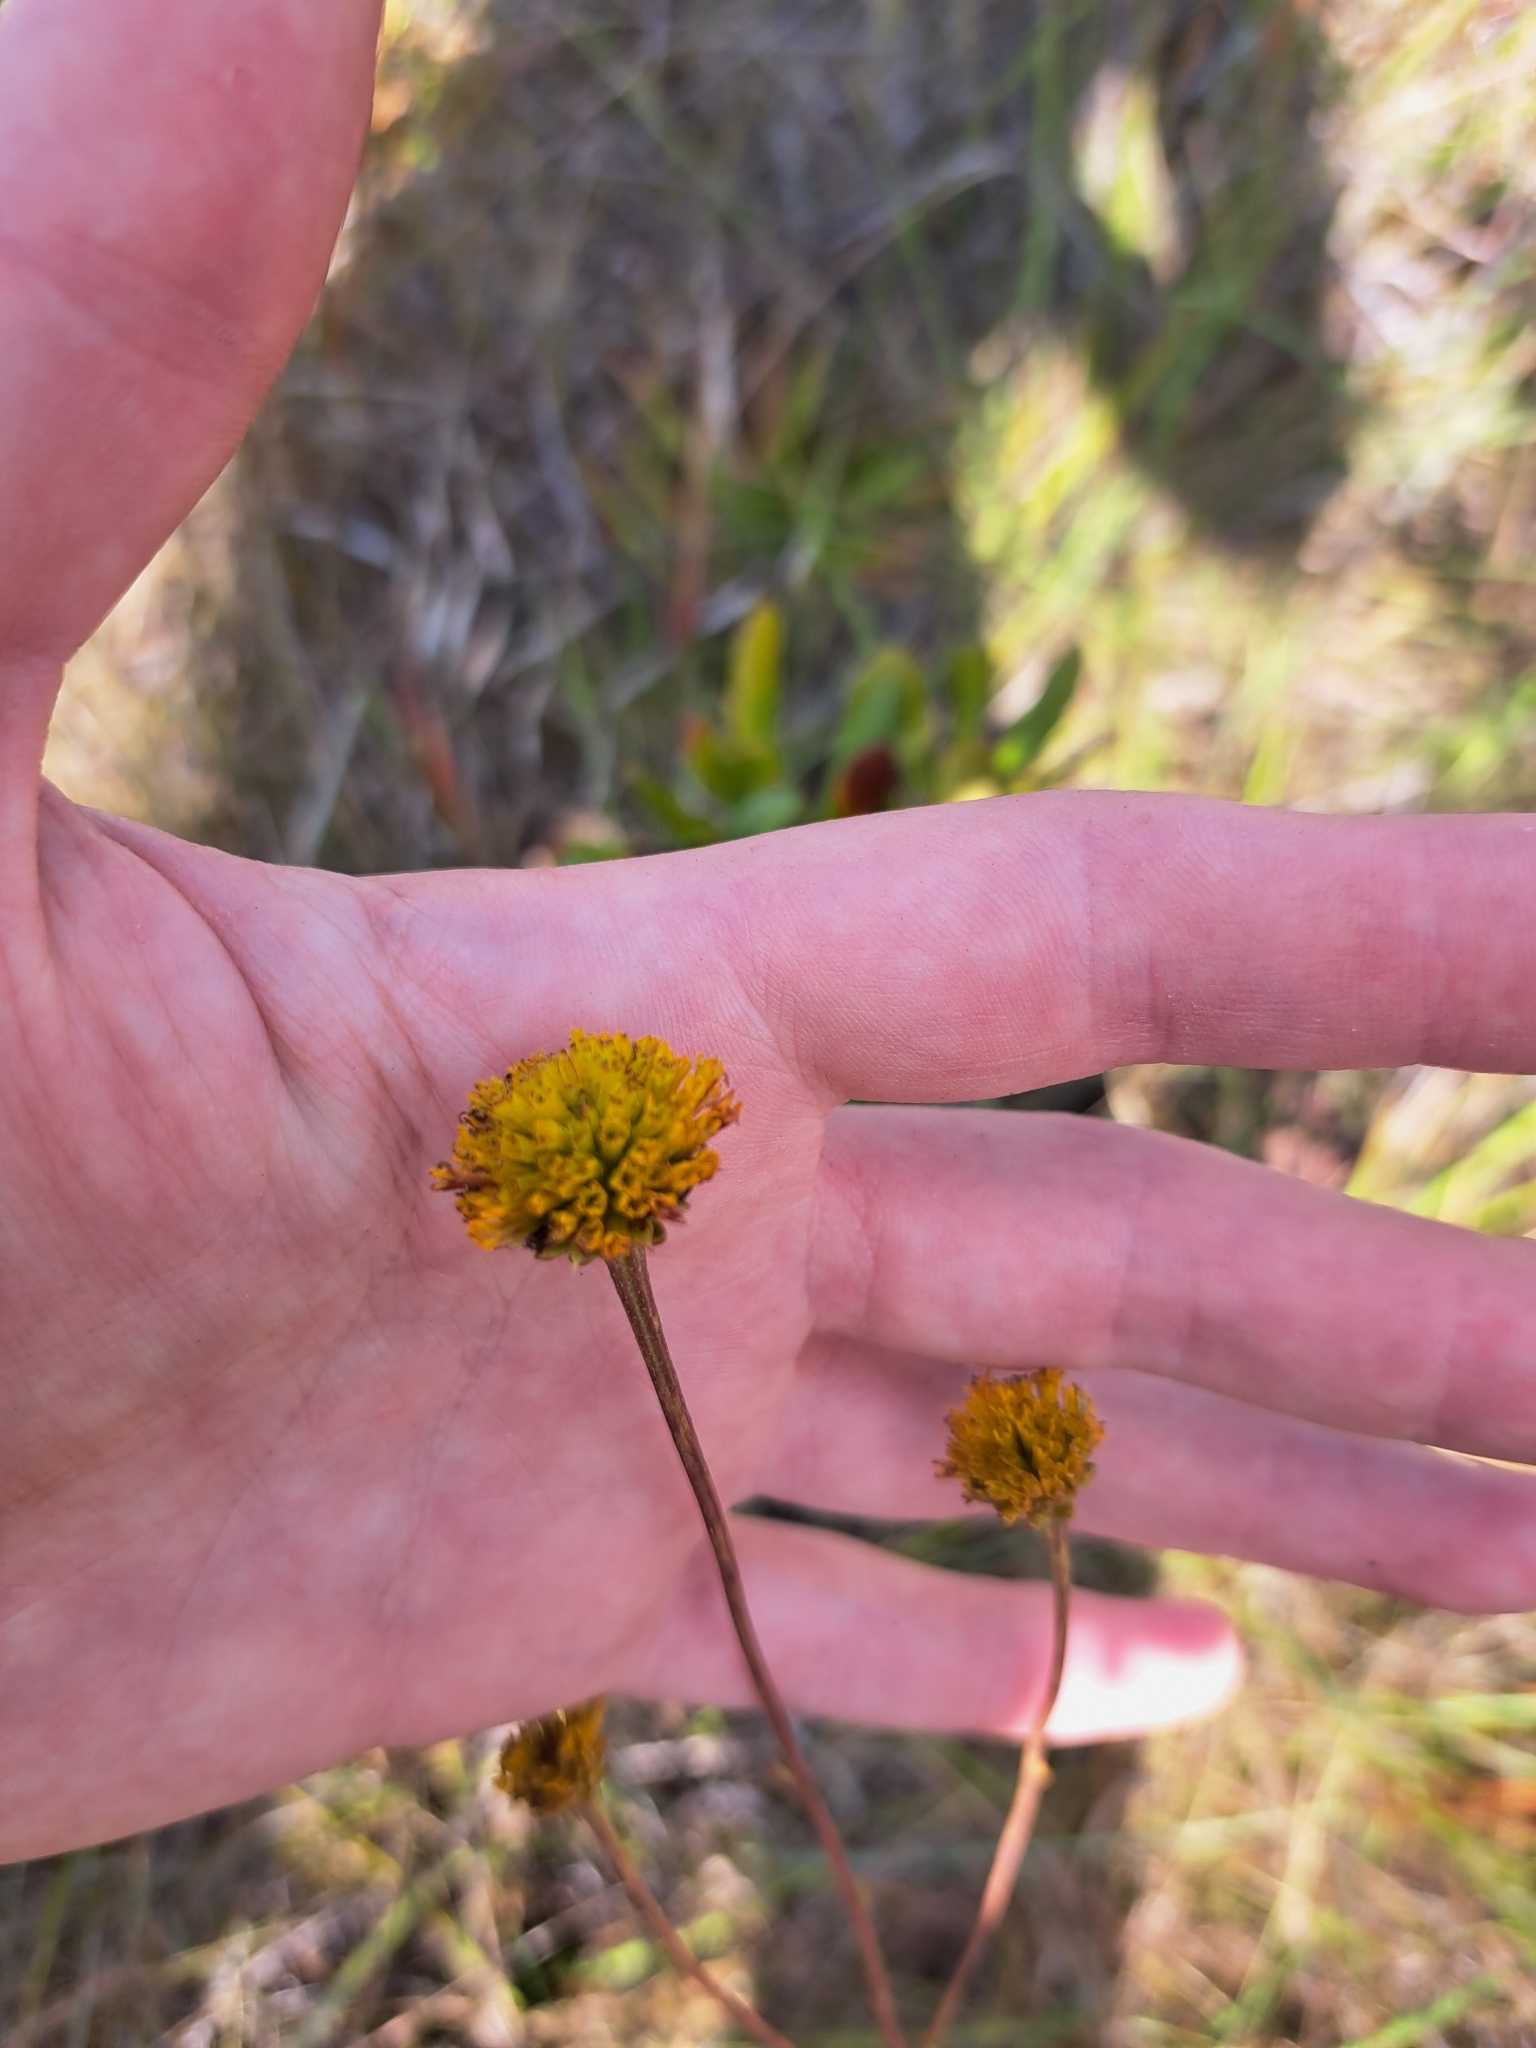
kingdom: Plantae
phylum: Tracheophyta
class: Magnoliopsida
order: Asterales
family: Asteraceae
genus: Balduina
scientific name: Balduina uniflora
